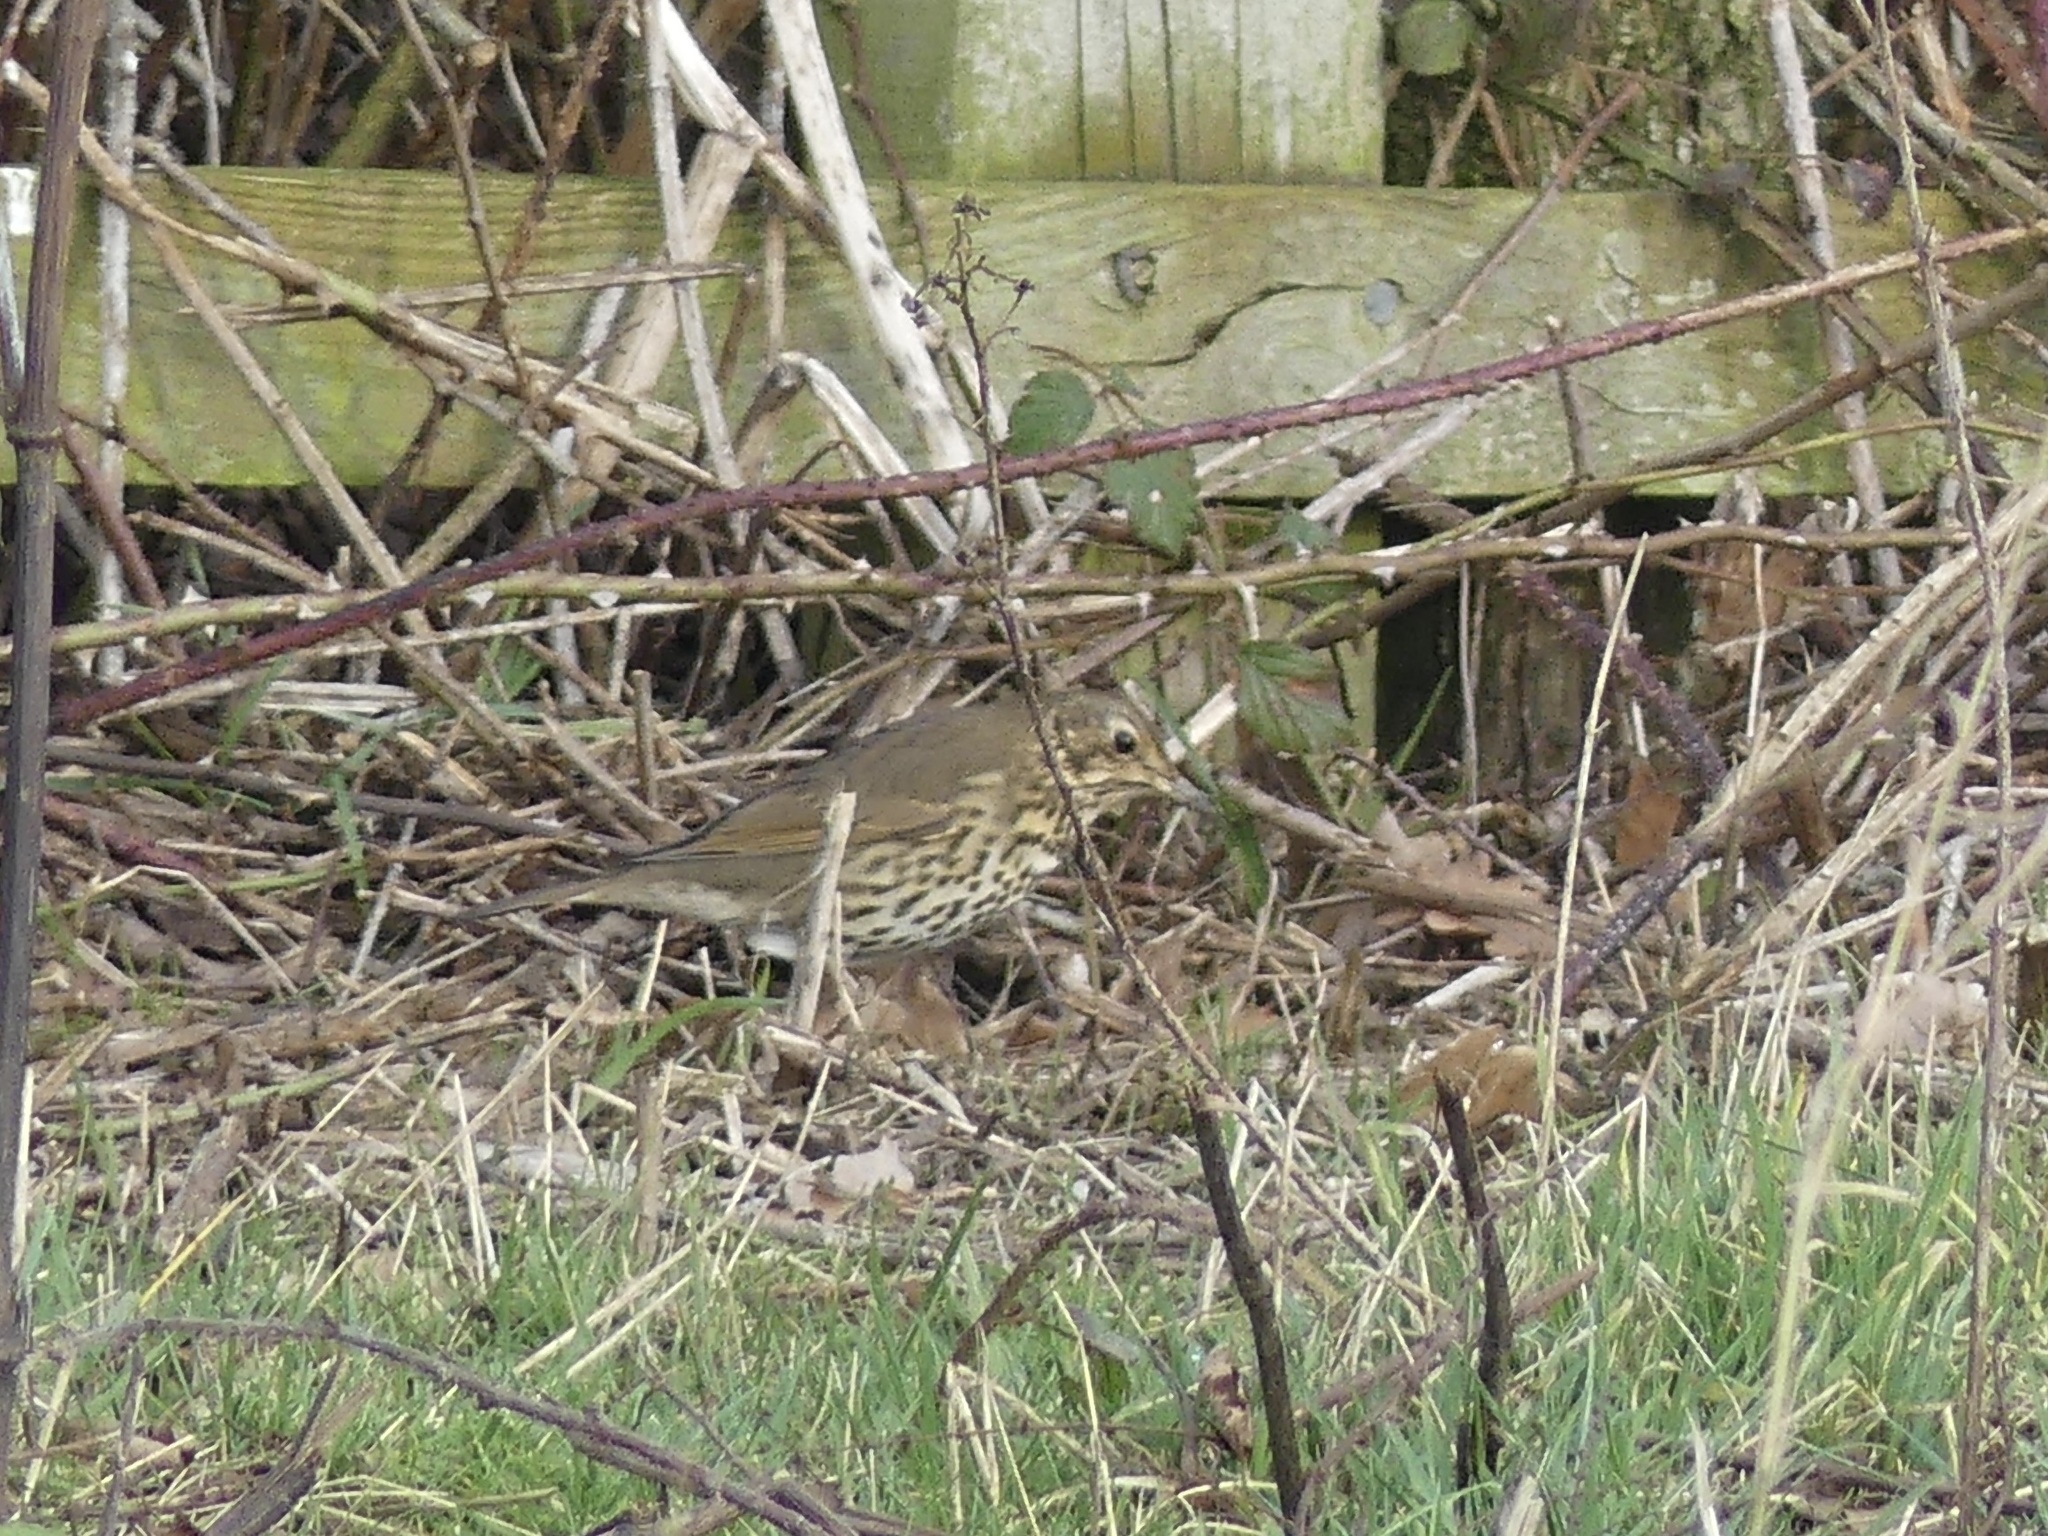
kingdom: Animalia
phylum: Chordata
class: Aves
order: Passeriformes
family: Turdidae
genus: Turdus
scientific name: Turdus philomelos
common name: Song thrush
